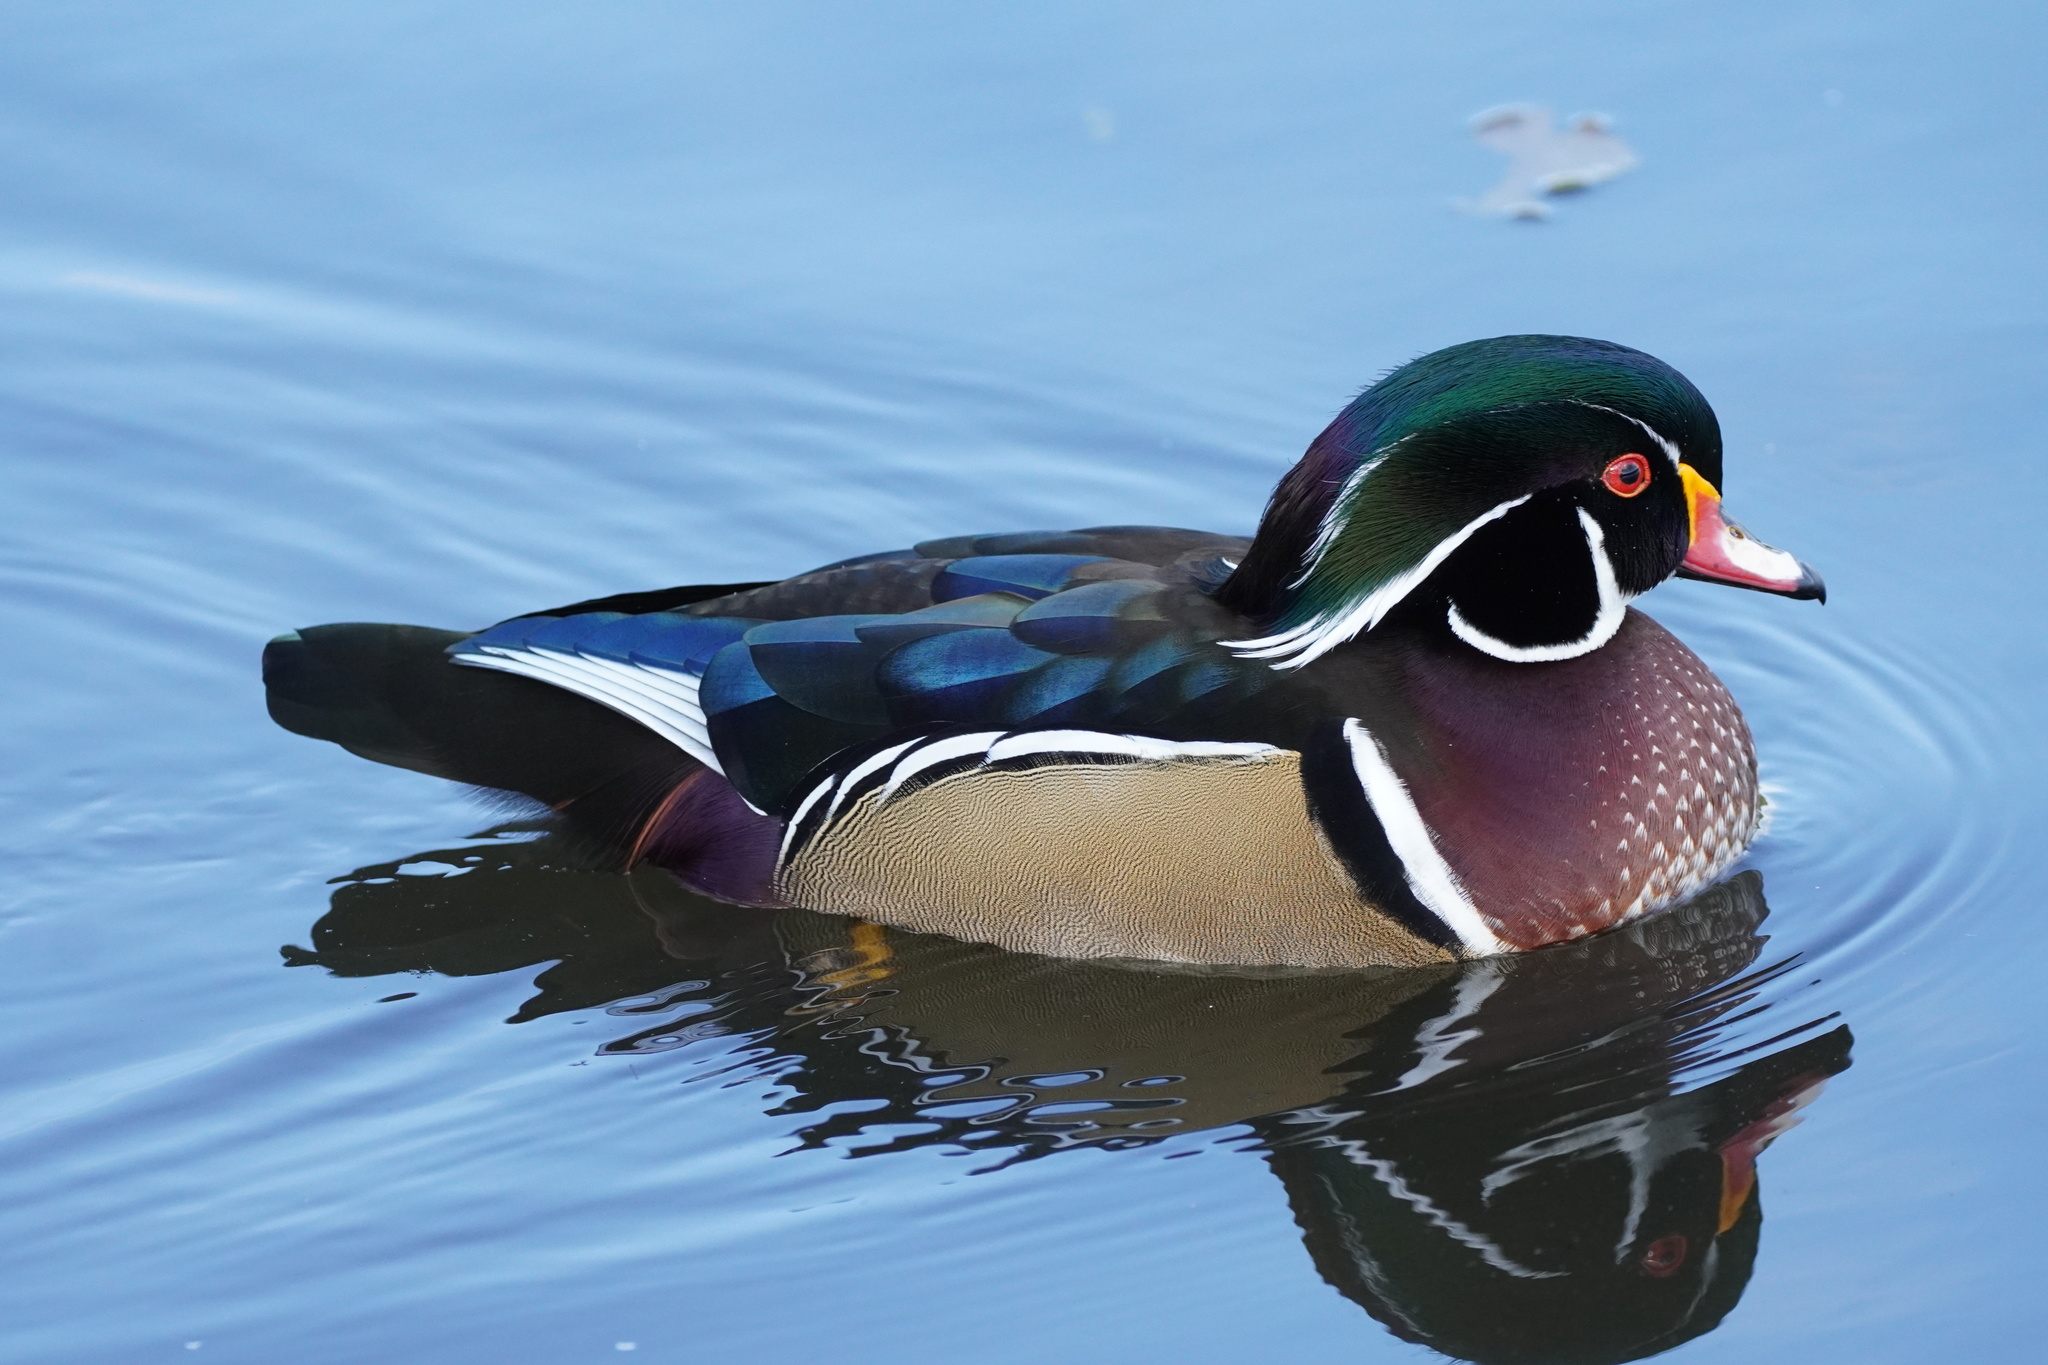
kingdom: Animalia
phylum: Chordata
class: Aves
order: Anseriformes
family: Anatidae
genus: Aix
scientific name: Aix sponsa
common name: Wood duck
